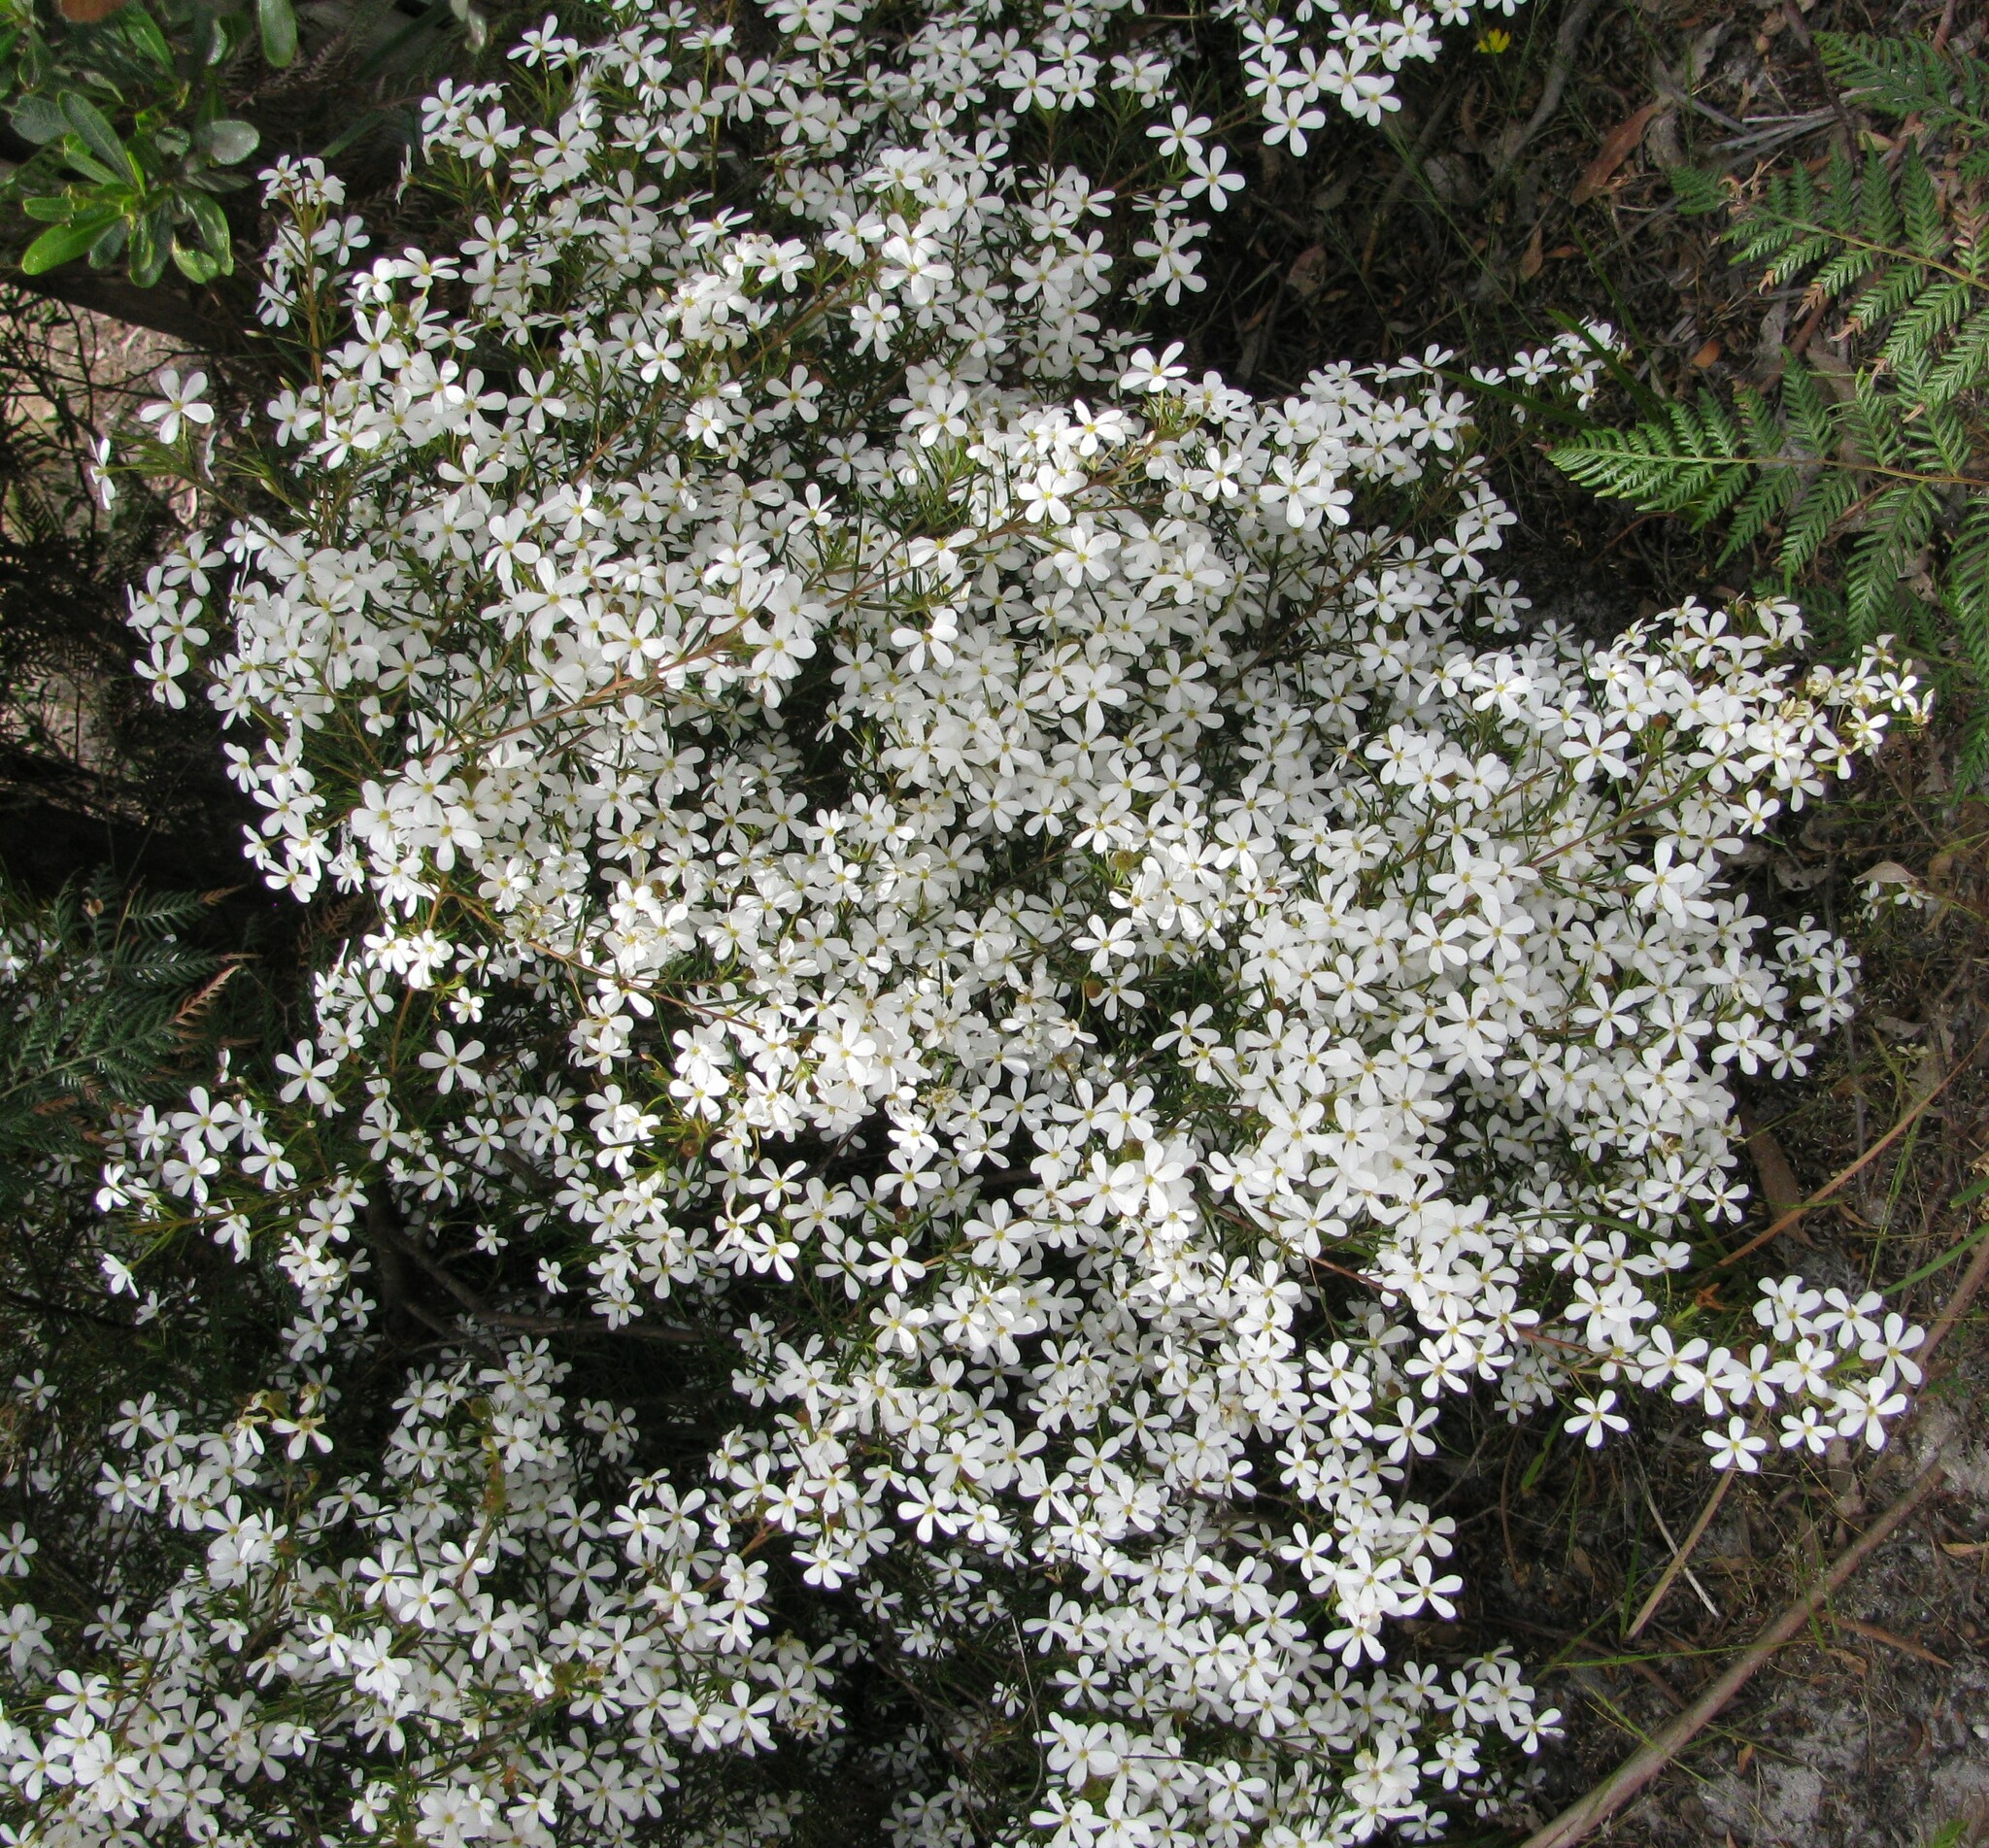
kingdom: Plantae
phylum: Tracheophyta
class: Magnoliopsida
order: Malpighiales
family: Euphorbiaceae
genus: Ricinocarpos
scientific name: Ricinocarpos pinifolius
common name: Weddingbush
